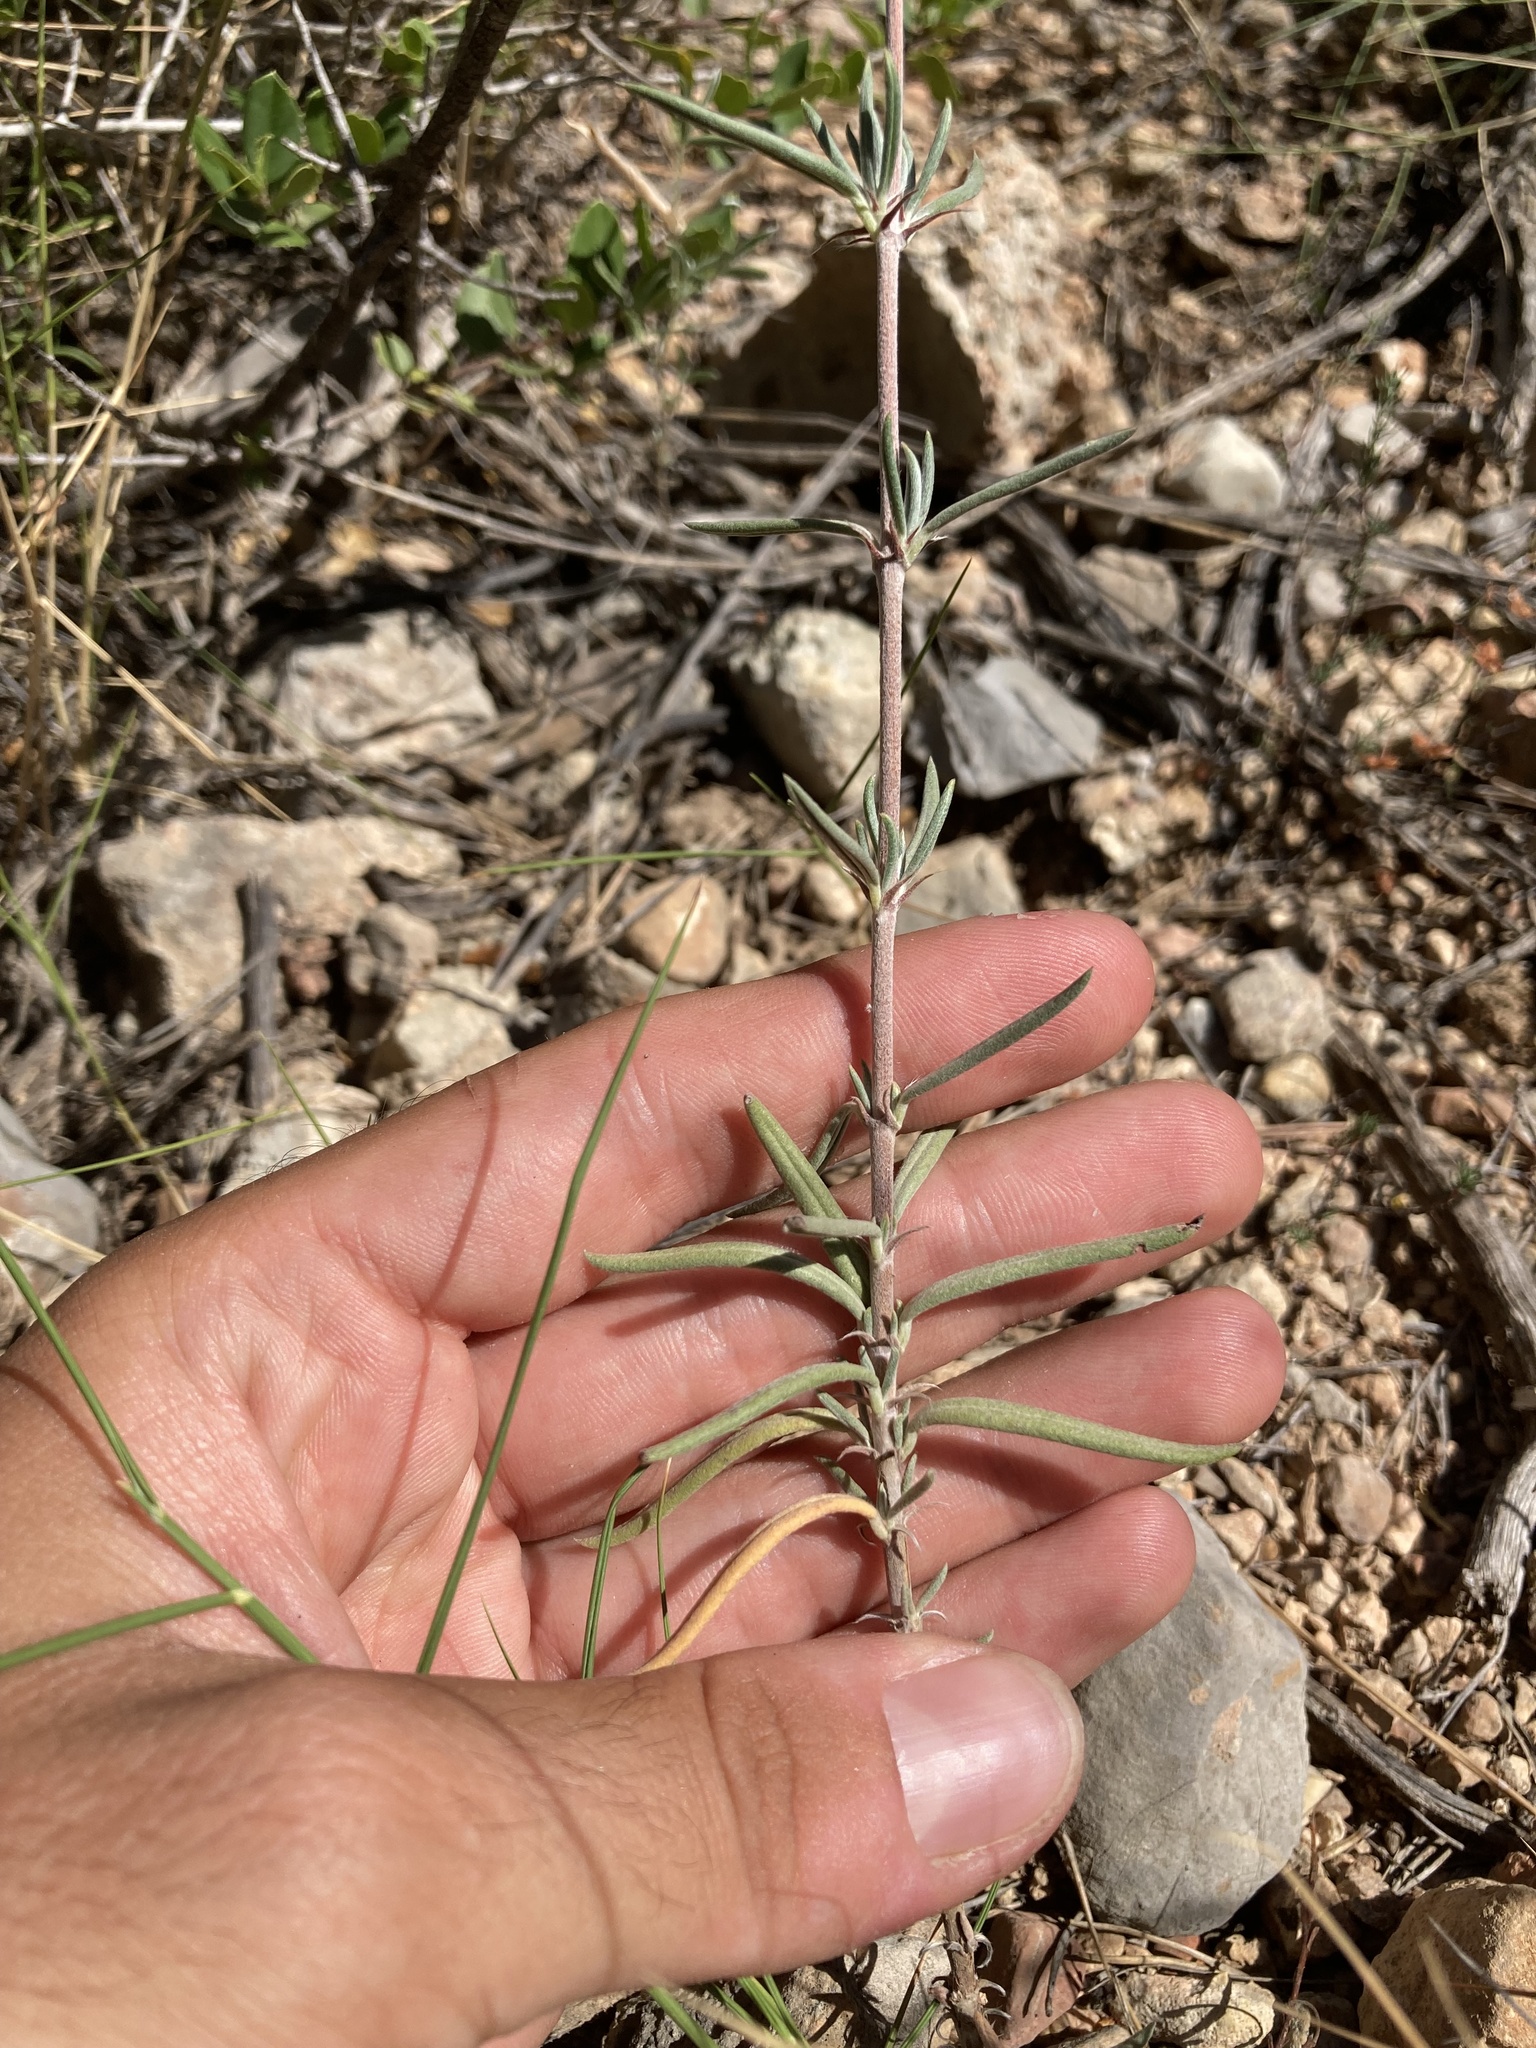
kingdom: Plantae
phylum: Tracheophyta
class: Magnoliopsida
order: Malvales
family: Cistaceae
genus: Helianthemum
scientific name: Helianthemum syriacum
